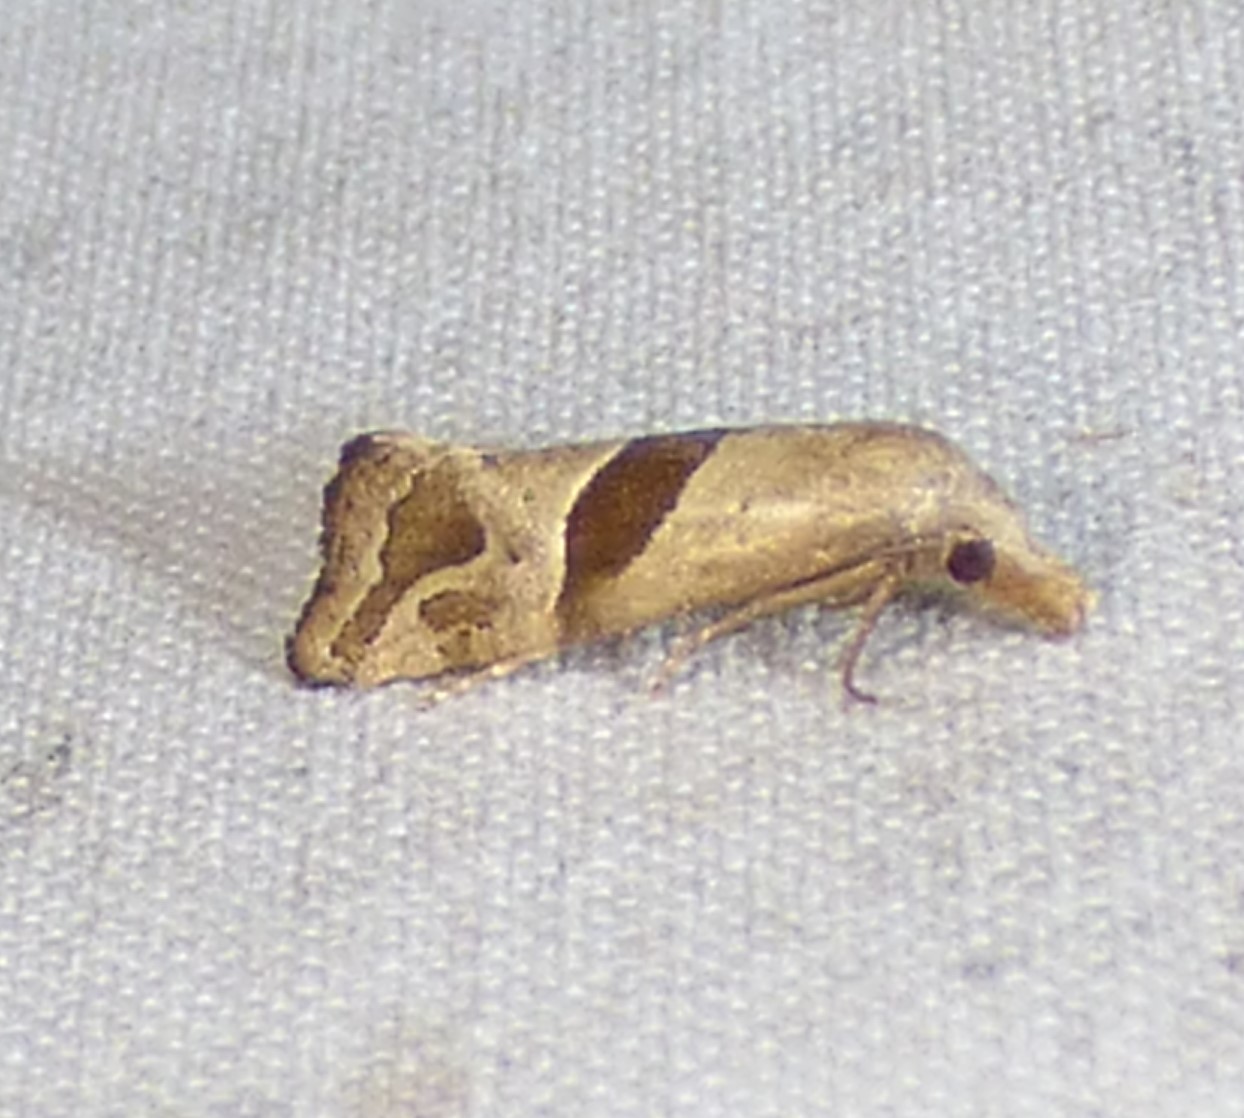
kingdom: Animalia
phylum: Arthropoda
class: Insecta
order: Lepidoptera
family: Tortricidae
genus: Eugnosta
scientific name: Eugnosta sartana
